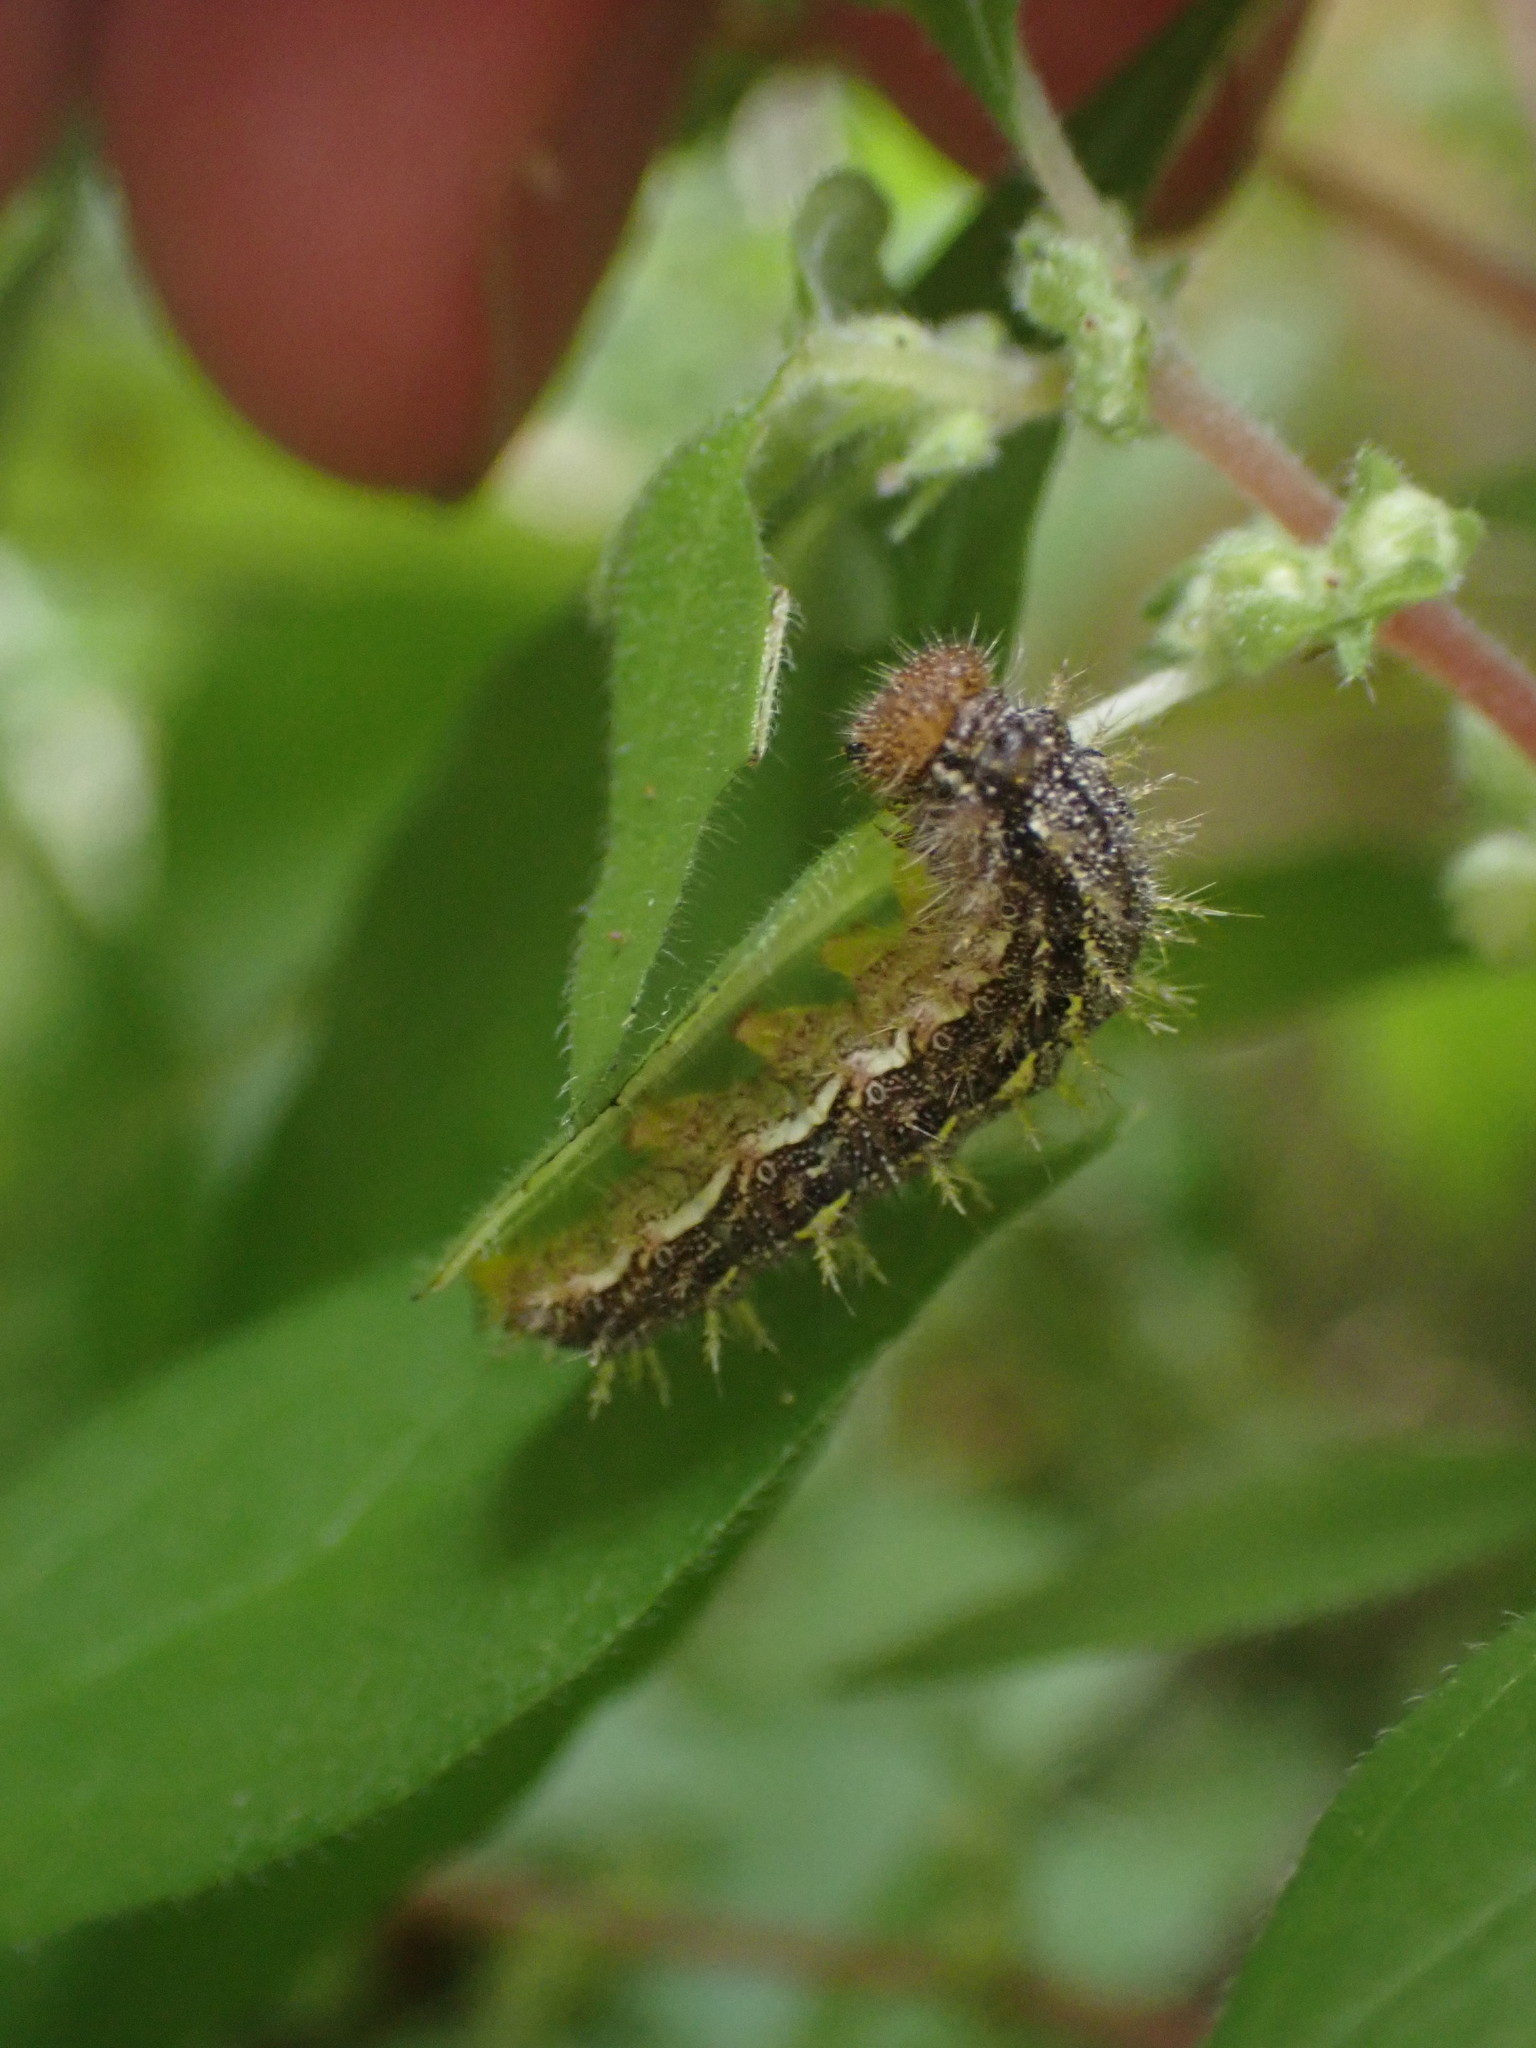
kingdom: Animalia
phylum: Arthropoda
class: Insecta
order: Lepidoptera
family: Nymphalidae
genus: Vanessa
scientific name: Vanessa itea
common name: Yellow admiral
